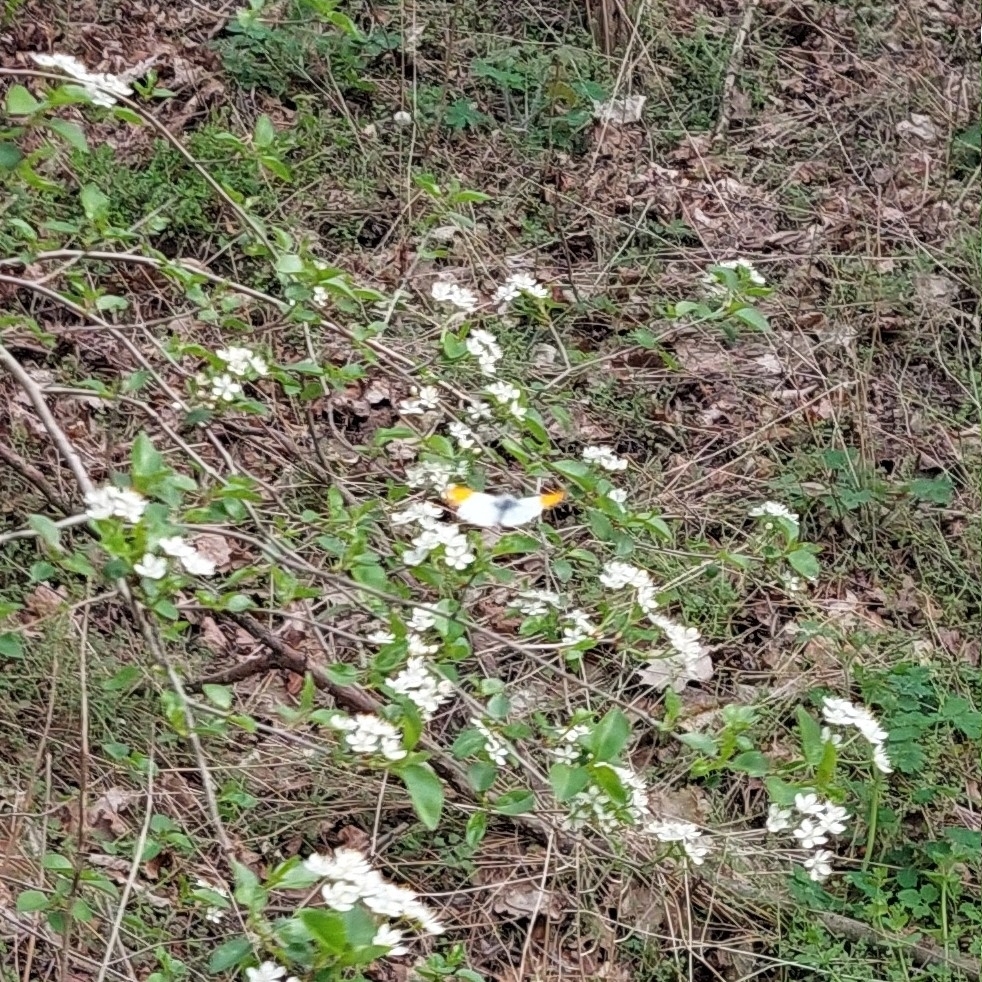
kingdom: Animalia
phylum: Arthropoda
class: Insecta
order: Lepidoptera
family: Pieridae
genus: Anthocharis
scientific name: Anthocharis cardamines
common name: Orange-tip
